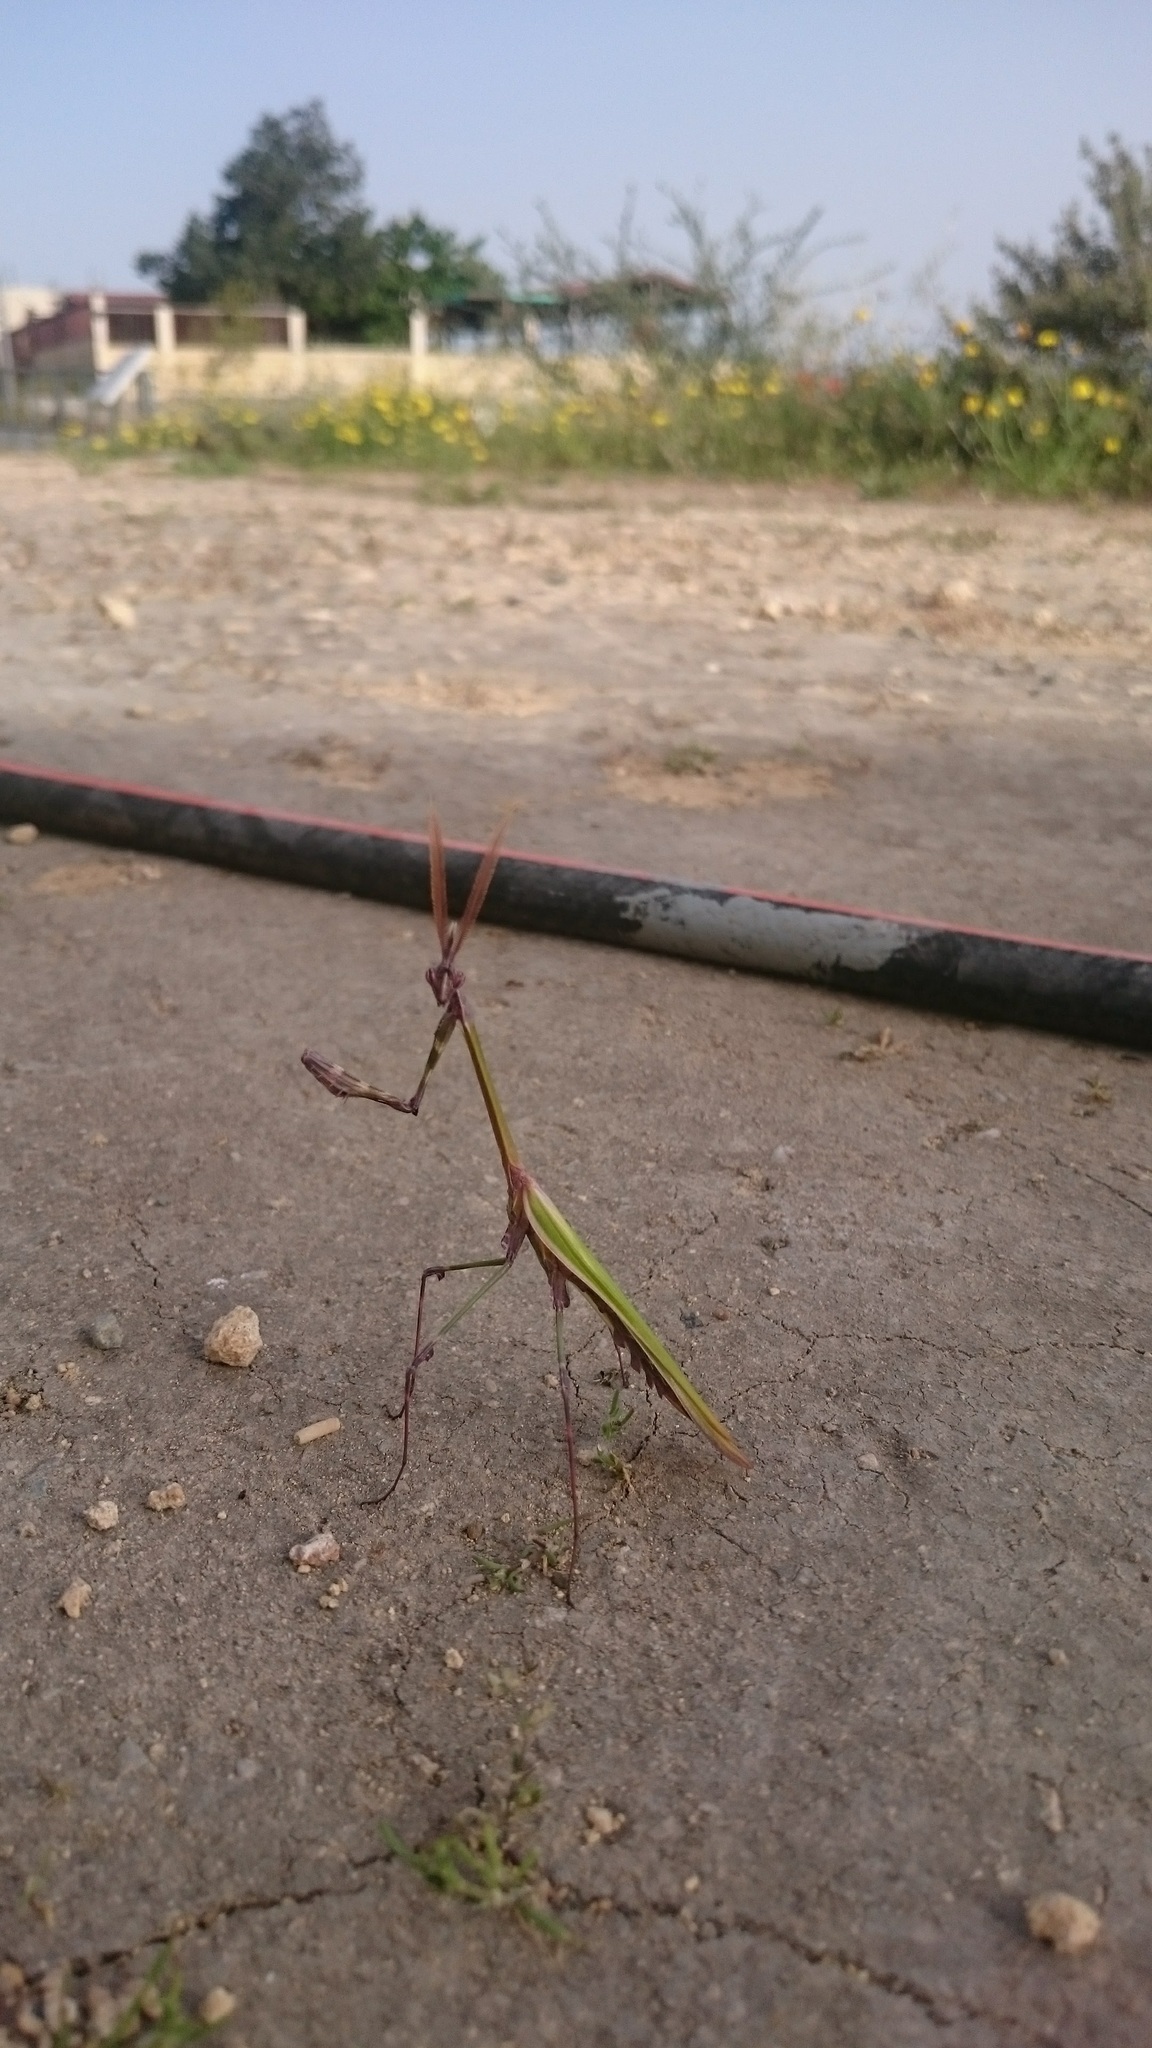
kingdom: Animalia
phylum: Arthropoda
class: Insecta
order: Mantodea
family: Empusidae
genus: Empusa
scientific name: Empusa fasciata
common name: Devil's mare
